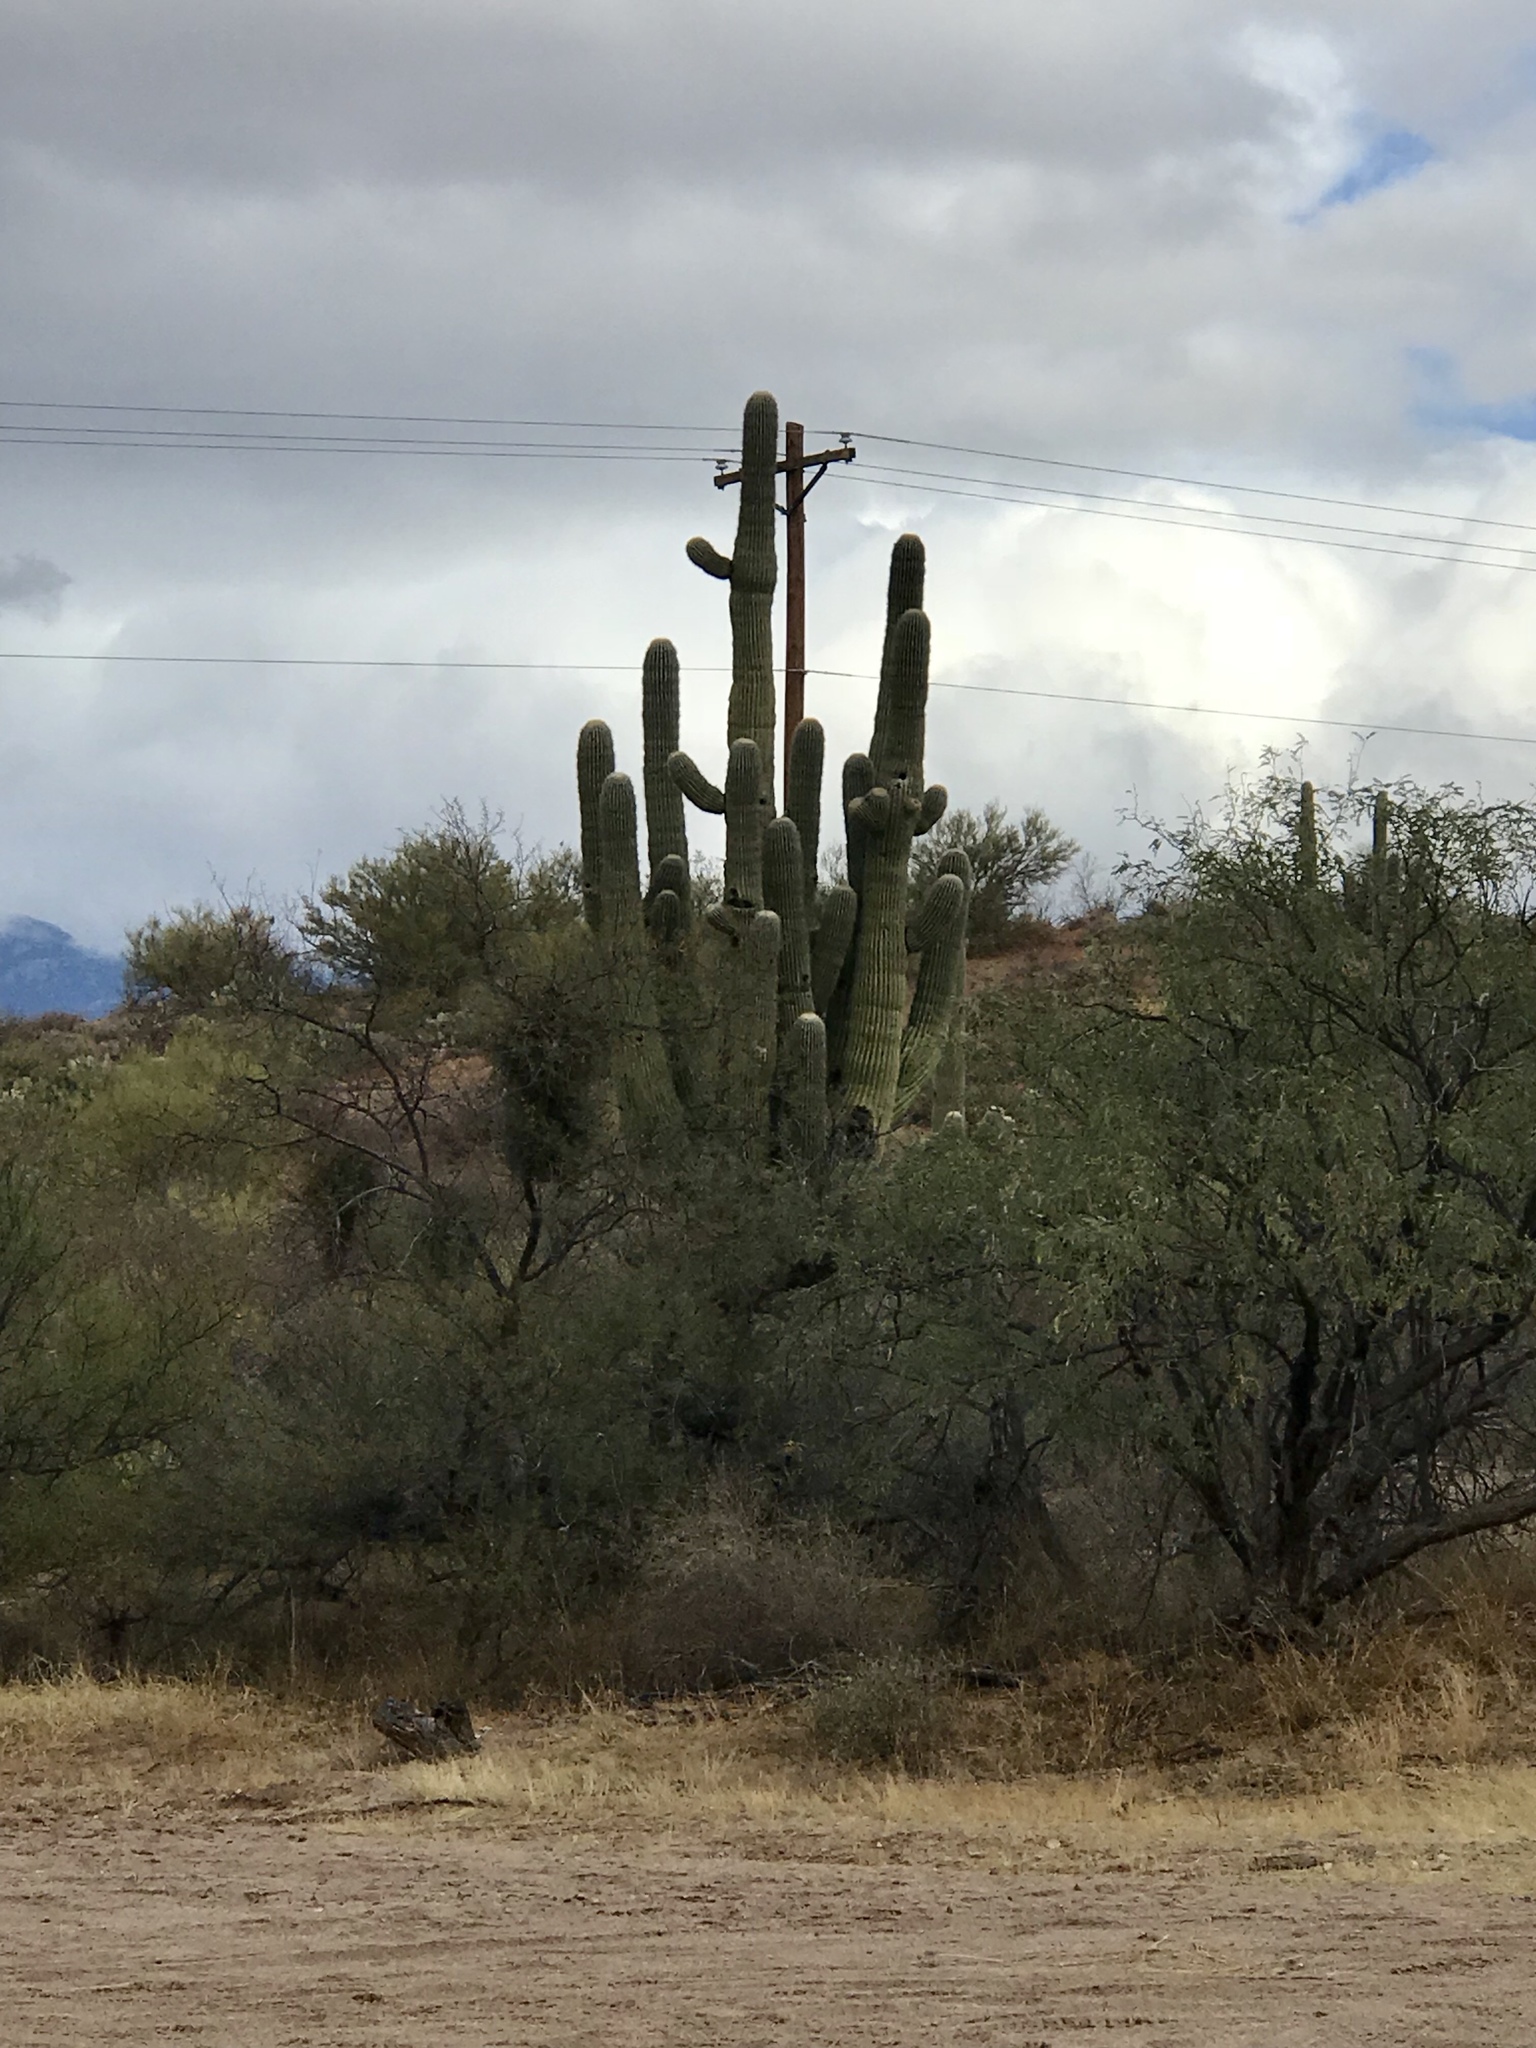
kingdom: Plantae
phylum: Tracheophyta
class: Magnoliopsida
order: Caryophyllales
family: Cactaceae
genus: Carnegiea
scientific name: Carnegiea gigantea
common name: Saguaro
